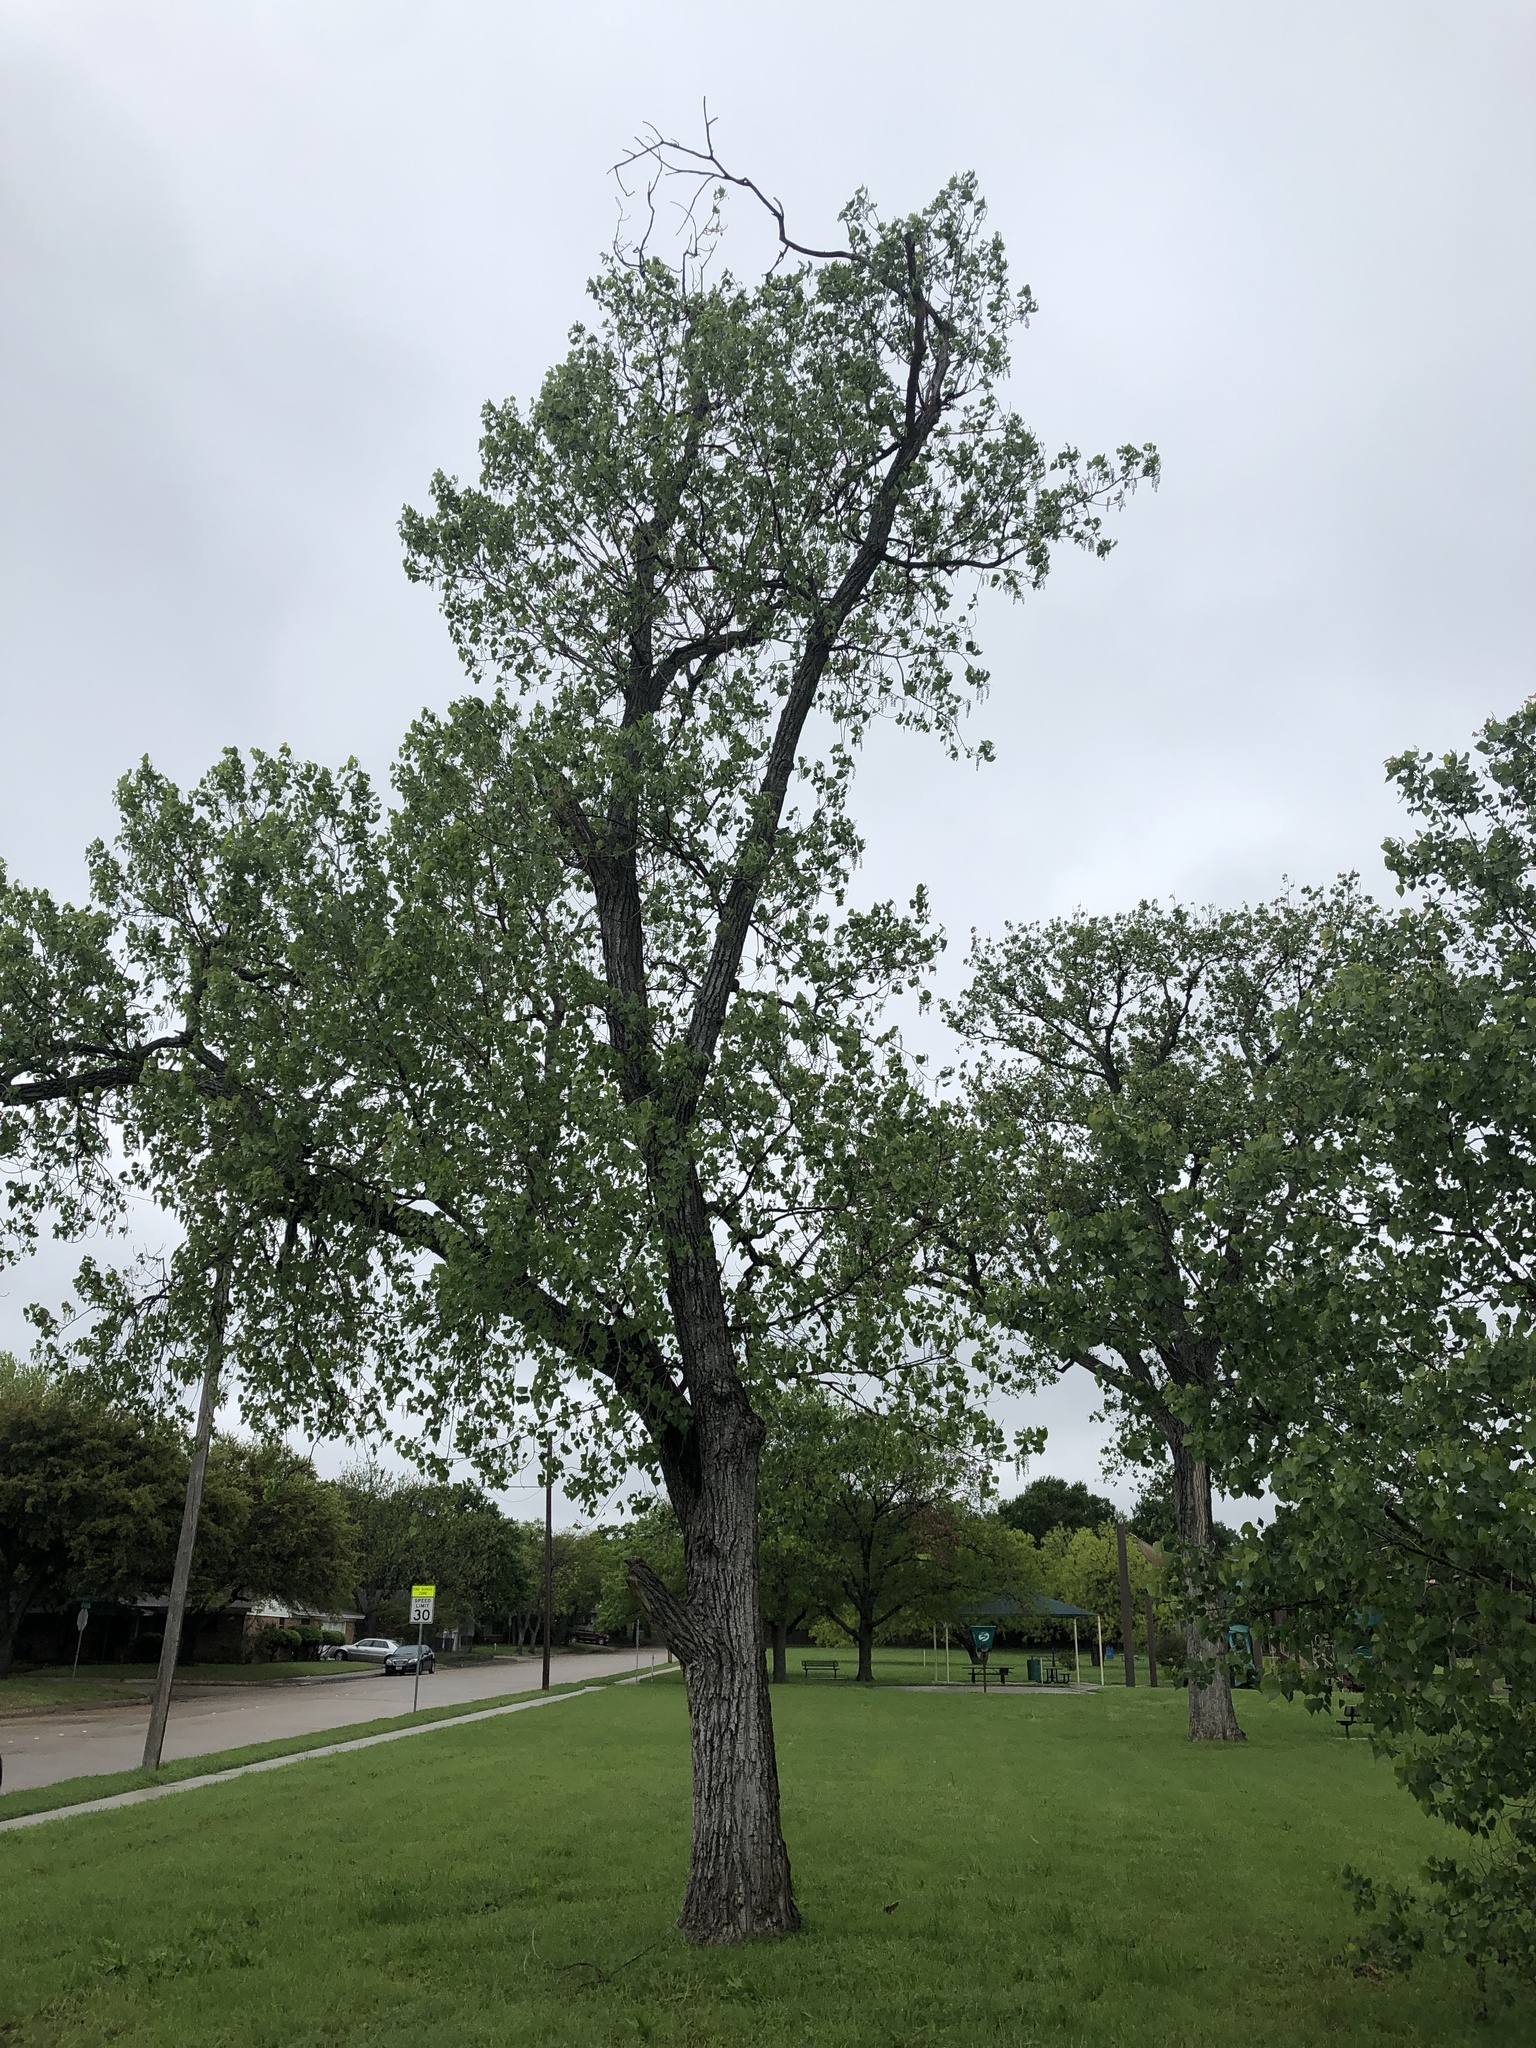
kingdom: Plantae
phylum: Tracheophyta
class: Magnoliopsida
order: Malpighiales
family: Salicaceae
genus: Populus
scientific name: Populus deltoides
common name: Eastern cottonwood
